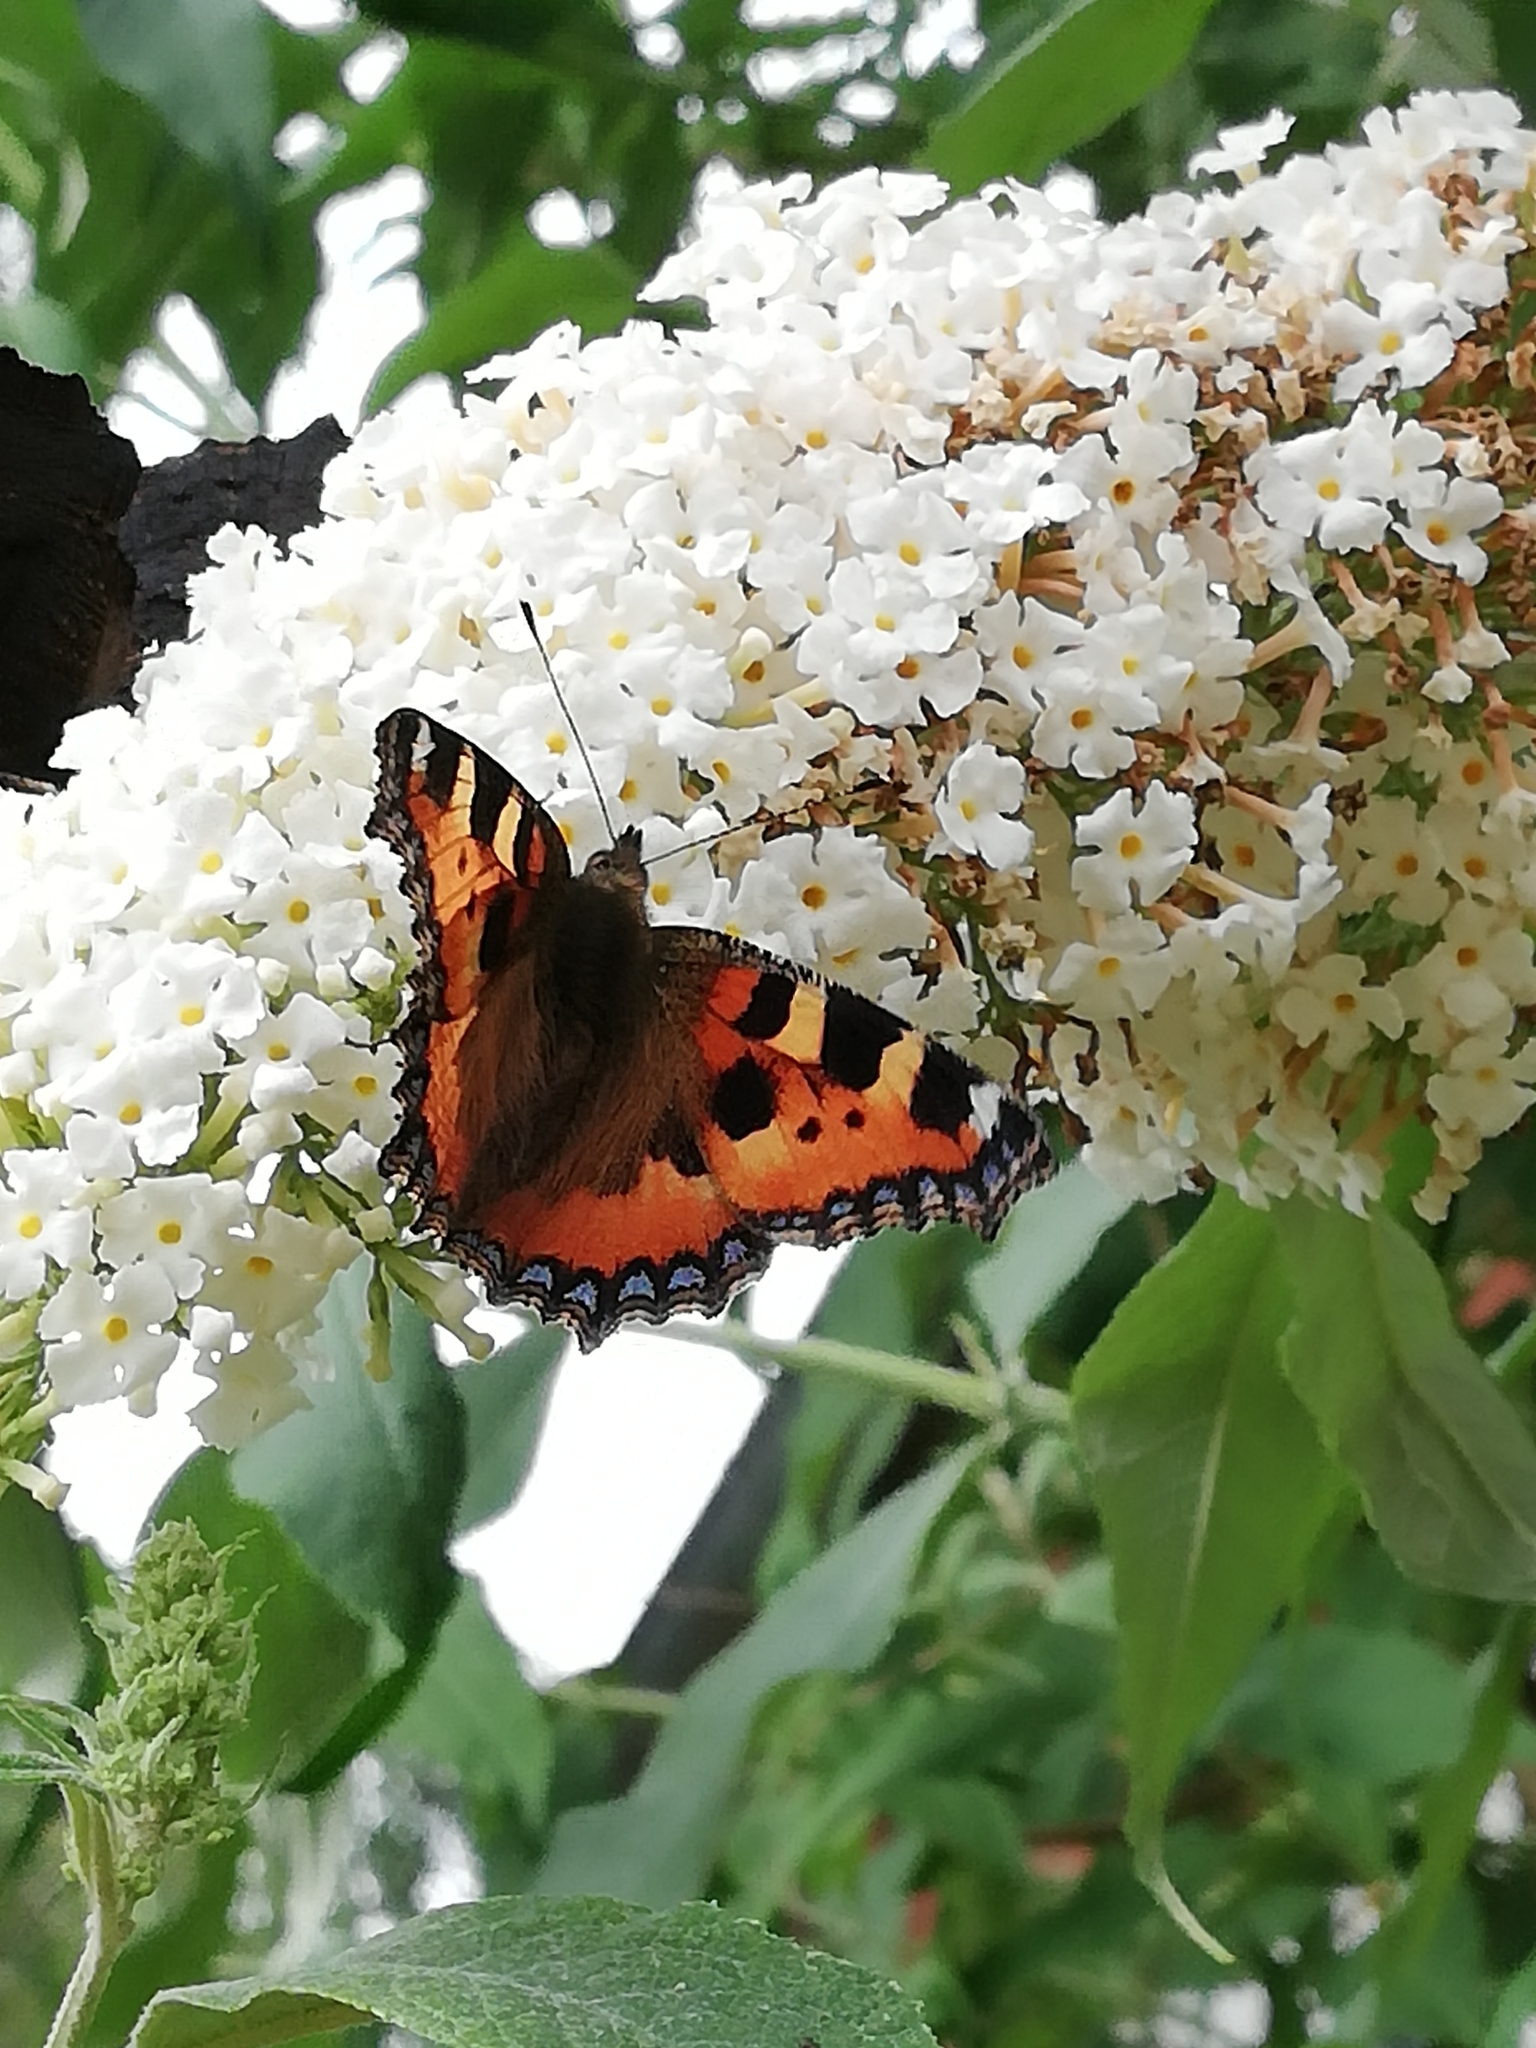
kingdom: Animalia
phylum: Arthropoda
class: Insecta
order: Lepidoptera
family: Nymphalidae
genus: Aglais
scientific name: Aglais urticae
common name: Small tortoiseshell
